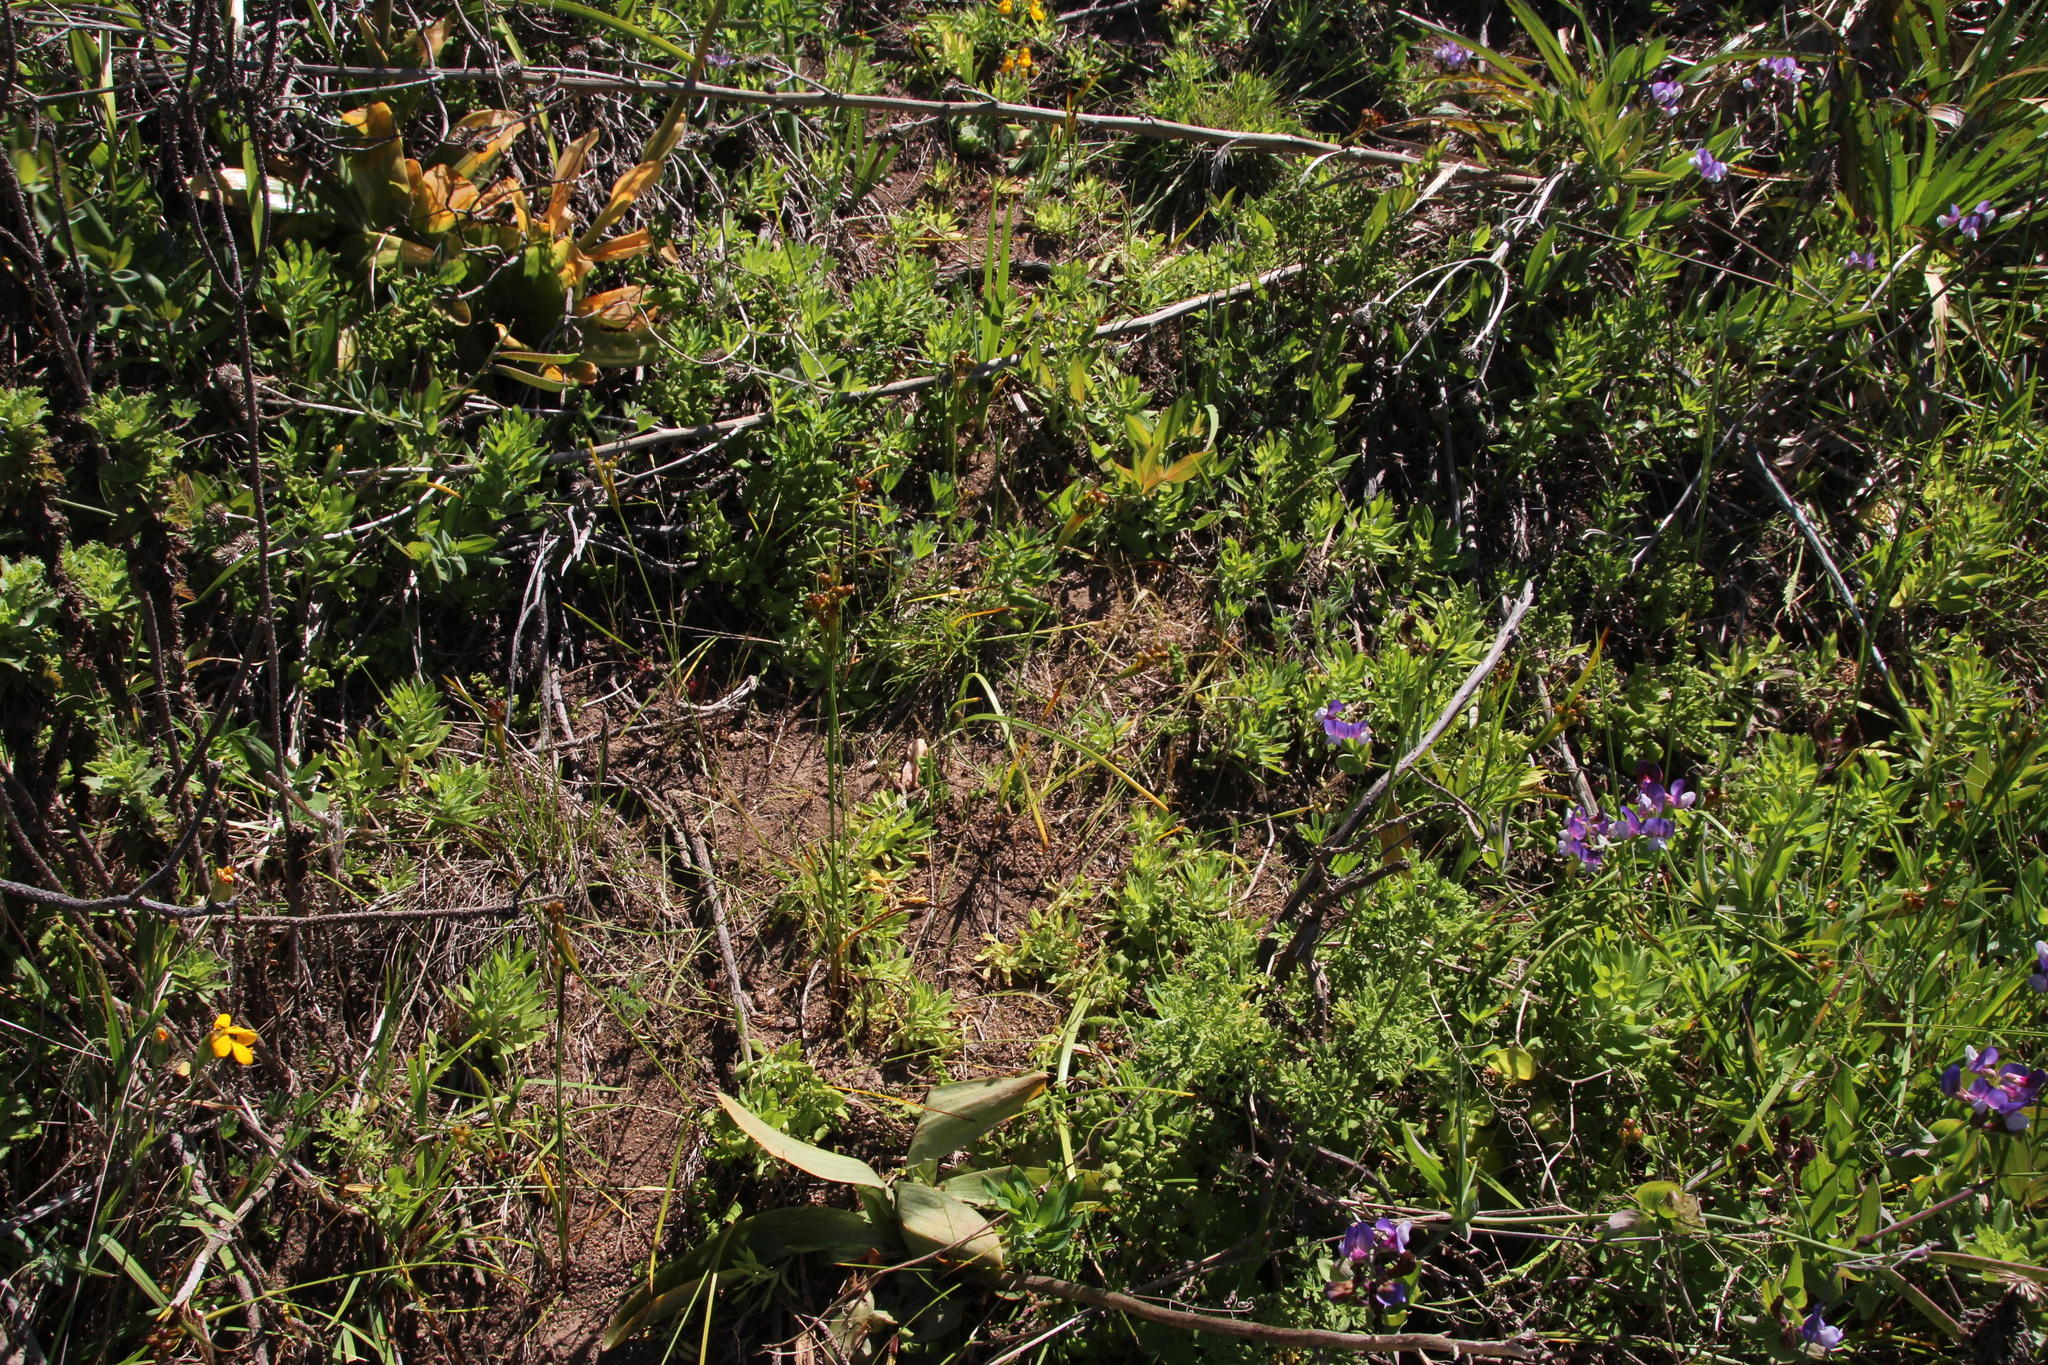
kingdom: Plantae
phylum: Tracheophyta
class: Liliopsida
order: Asparagales
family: Iridaceae
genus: Olsynium
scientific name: Olsynium scirpoideum
